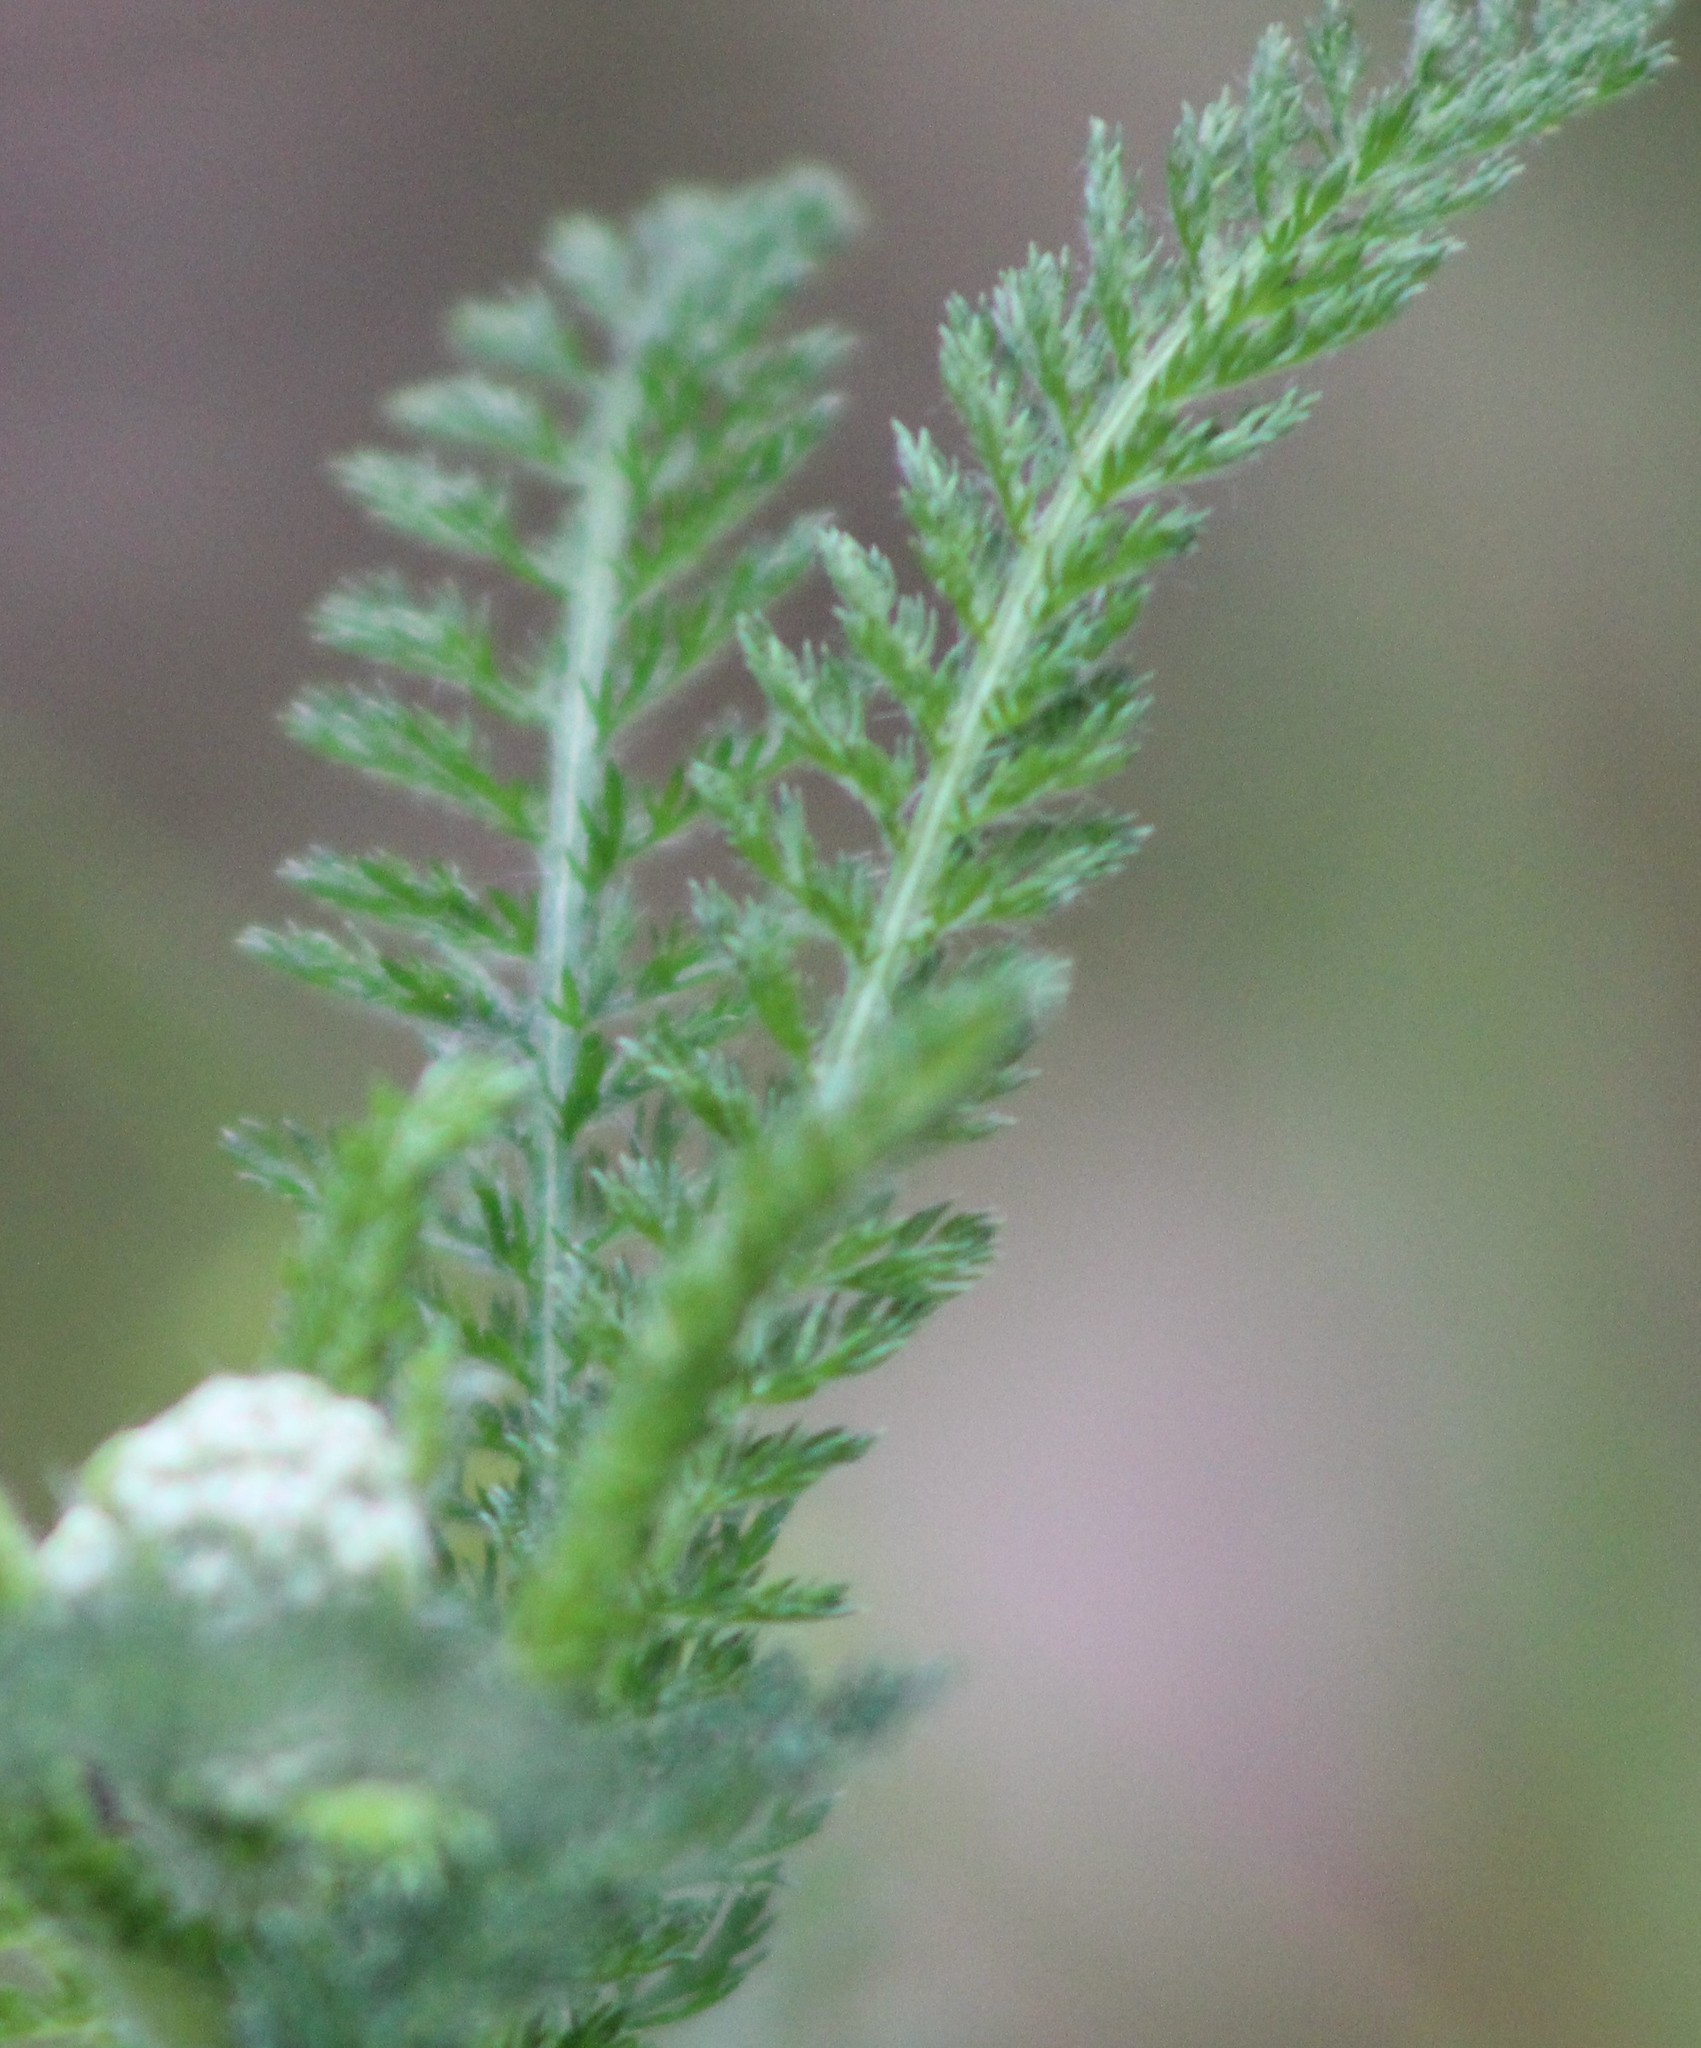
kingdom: Plantae
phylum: Tracheophyta
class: Magnoliopsida
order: Asterales
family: Asteraceae
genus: Achillea
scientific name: Achillea millefolium
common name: Yarrow
